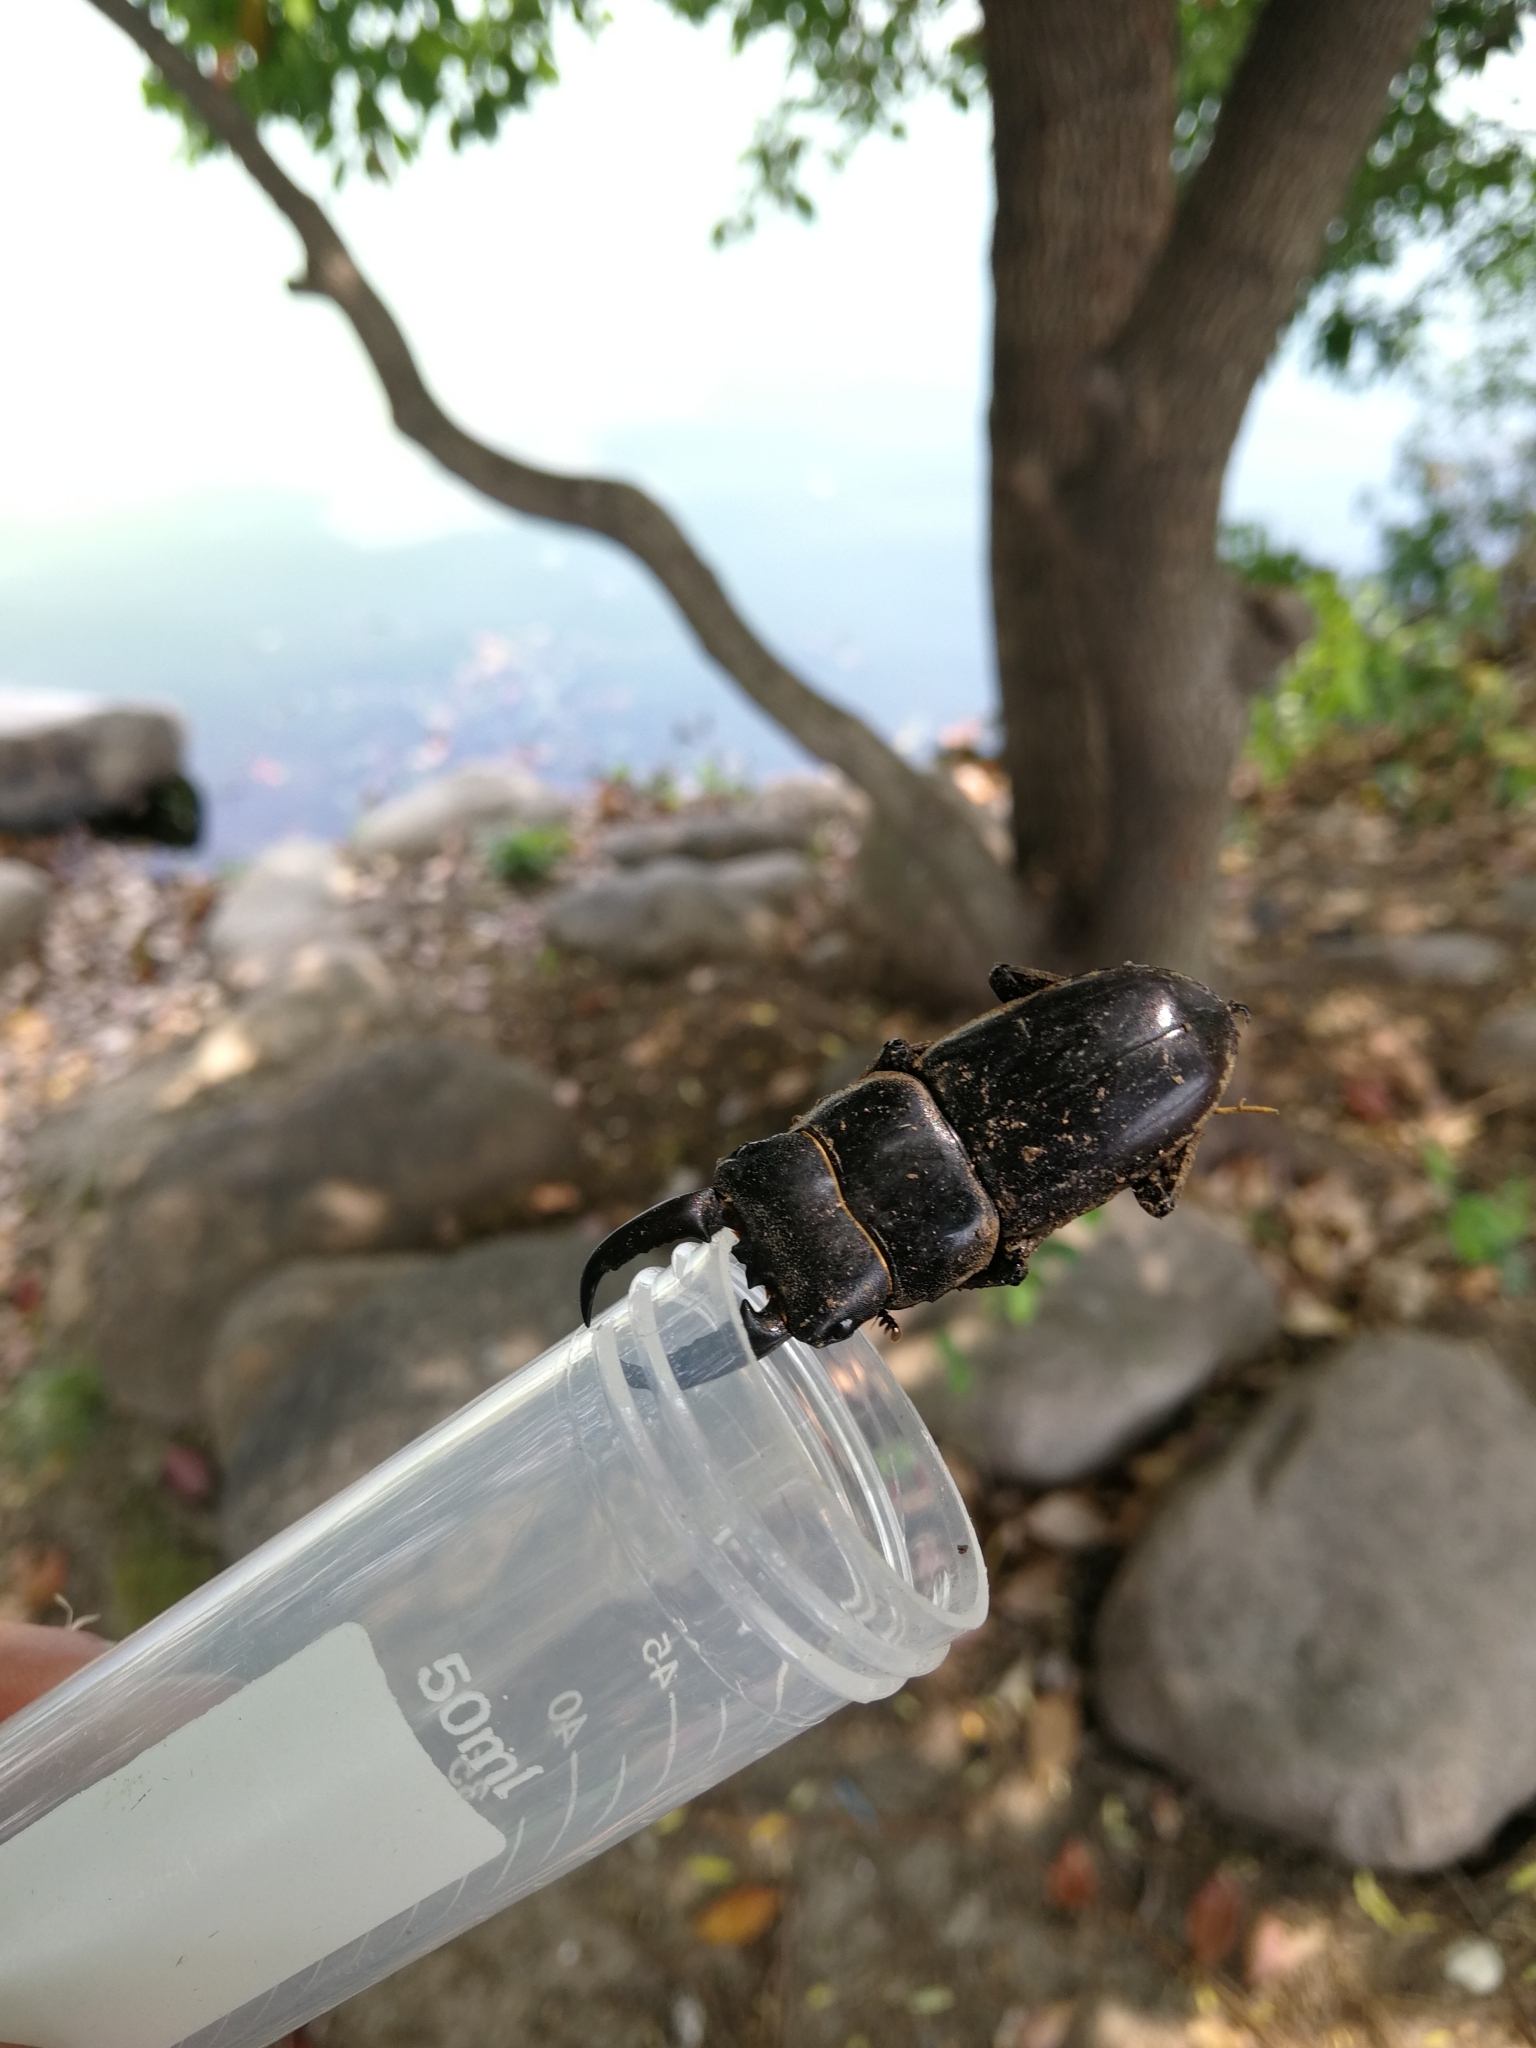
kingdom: Animalia
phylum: Arthropoda
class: Insecta
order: Coleoptera
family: Lucanidae
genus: Serrognathus
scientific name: Serrognathus titanus
